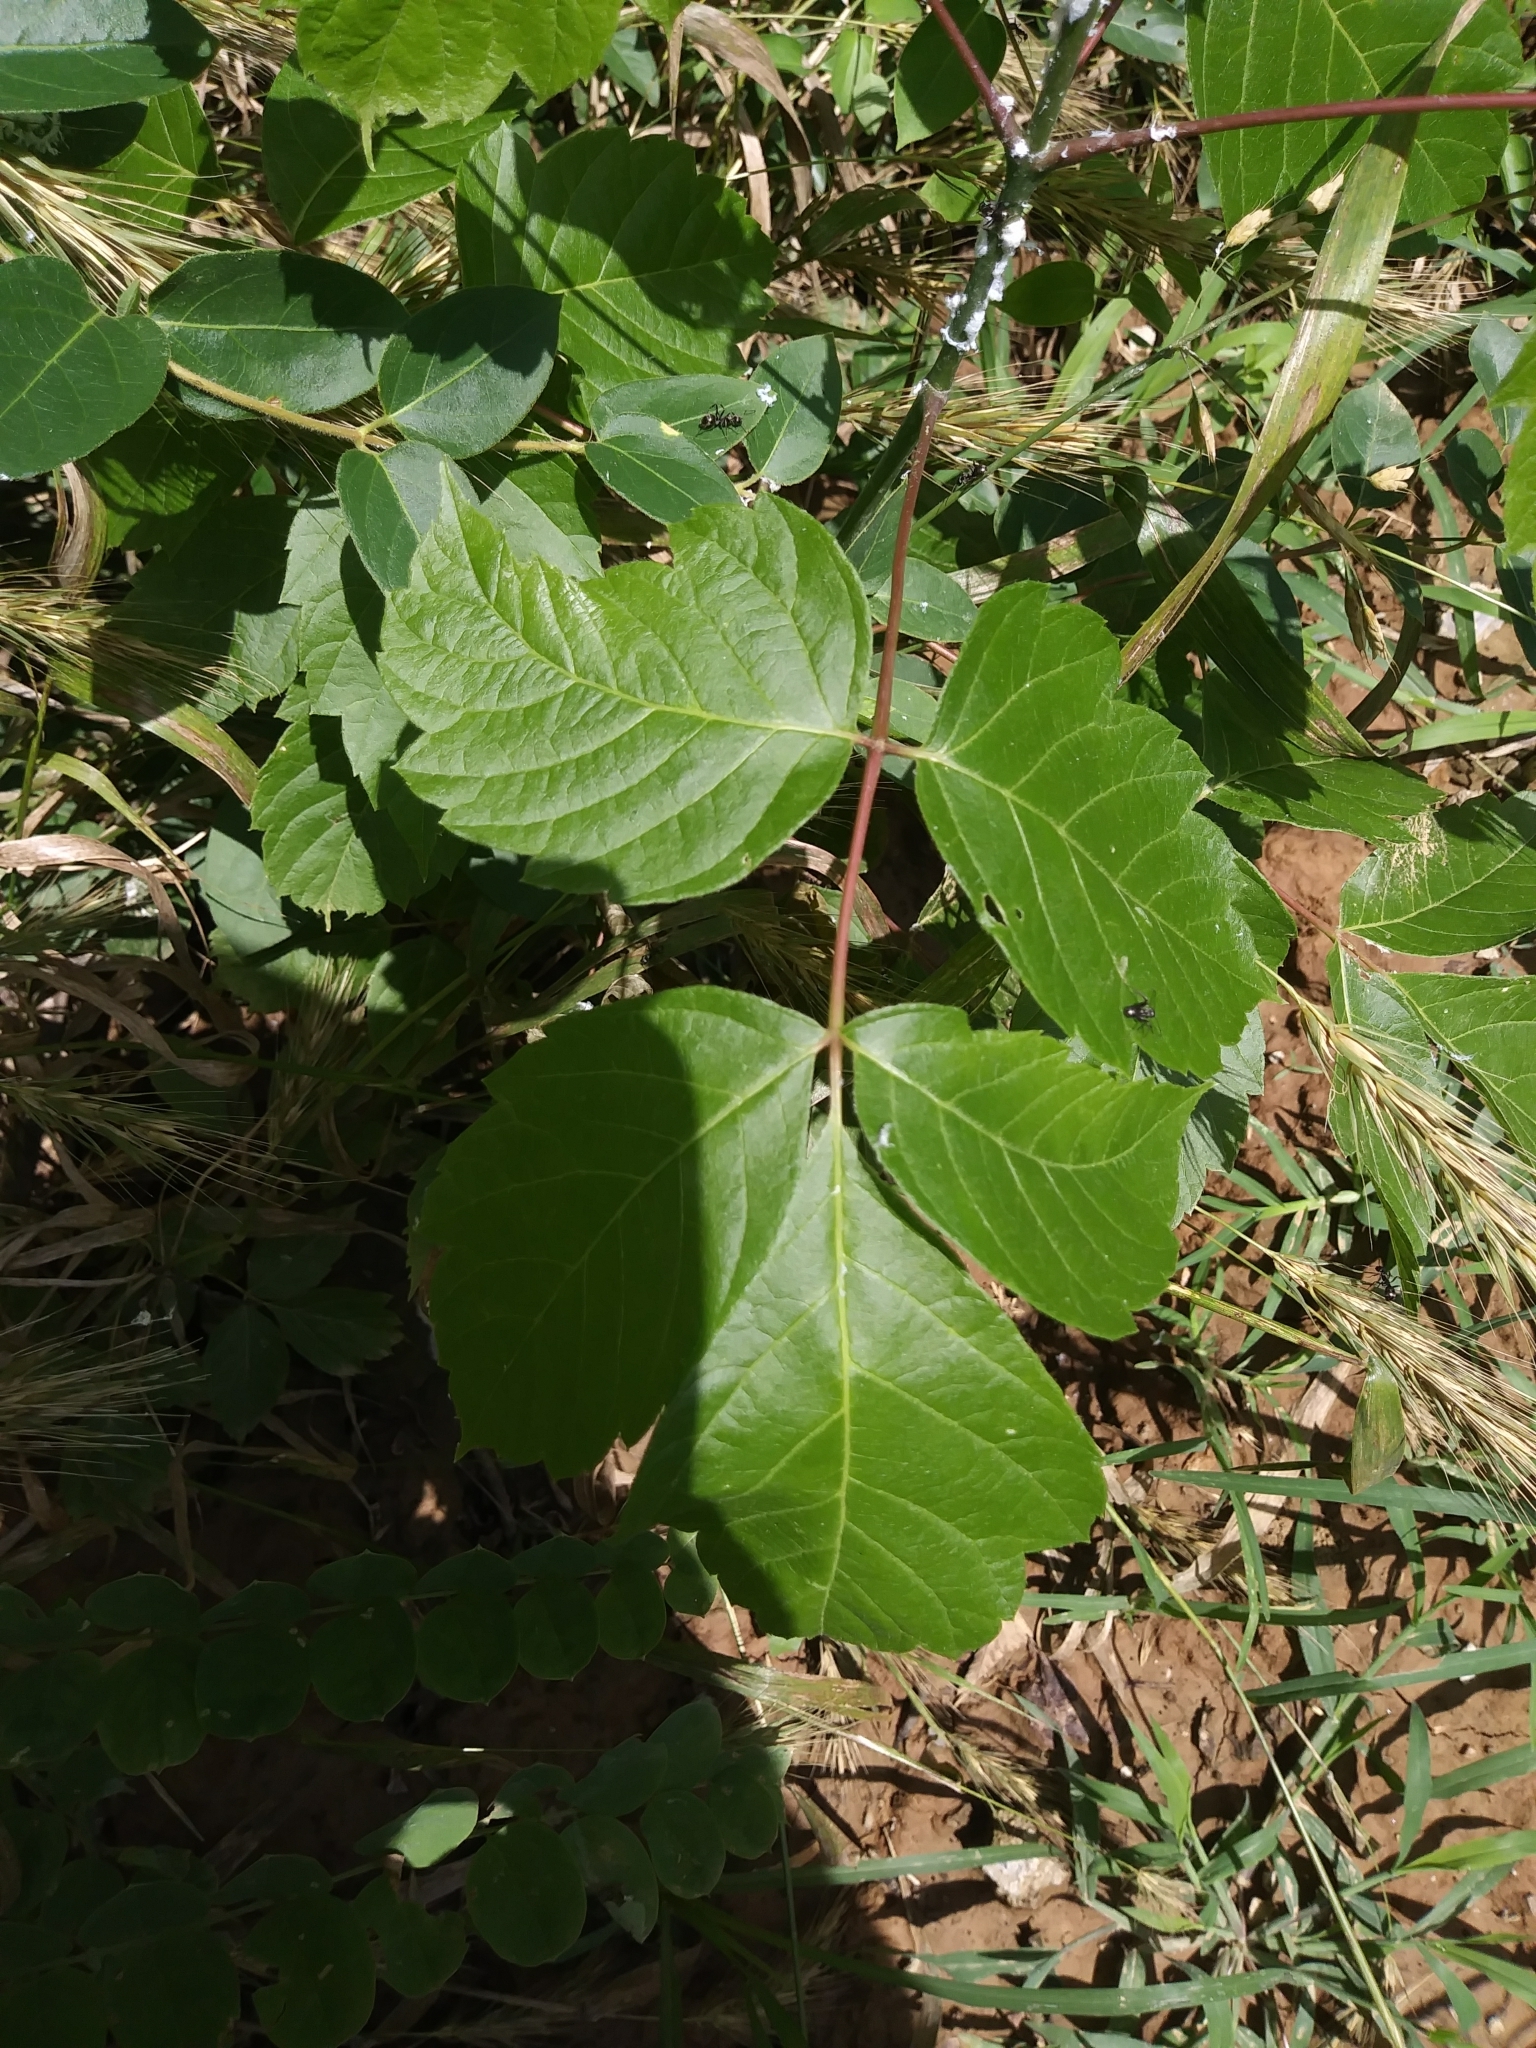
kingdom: Plantae
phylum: Tracheophyta
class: Magnoliopsida
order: Sapindales
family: Sapindaceae
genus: Acer
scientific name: Acer negundo
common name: Ashleaf maple
